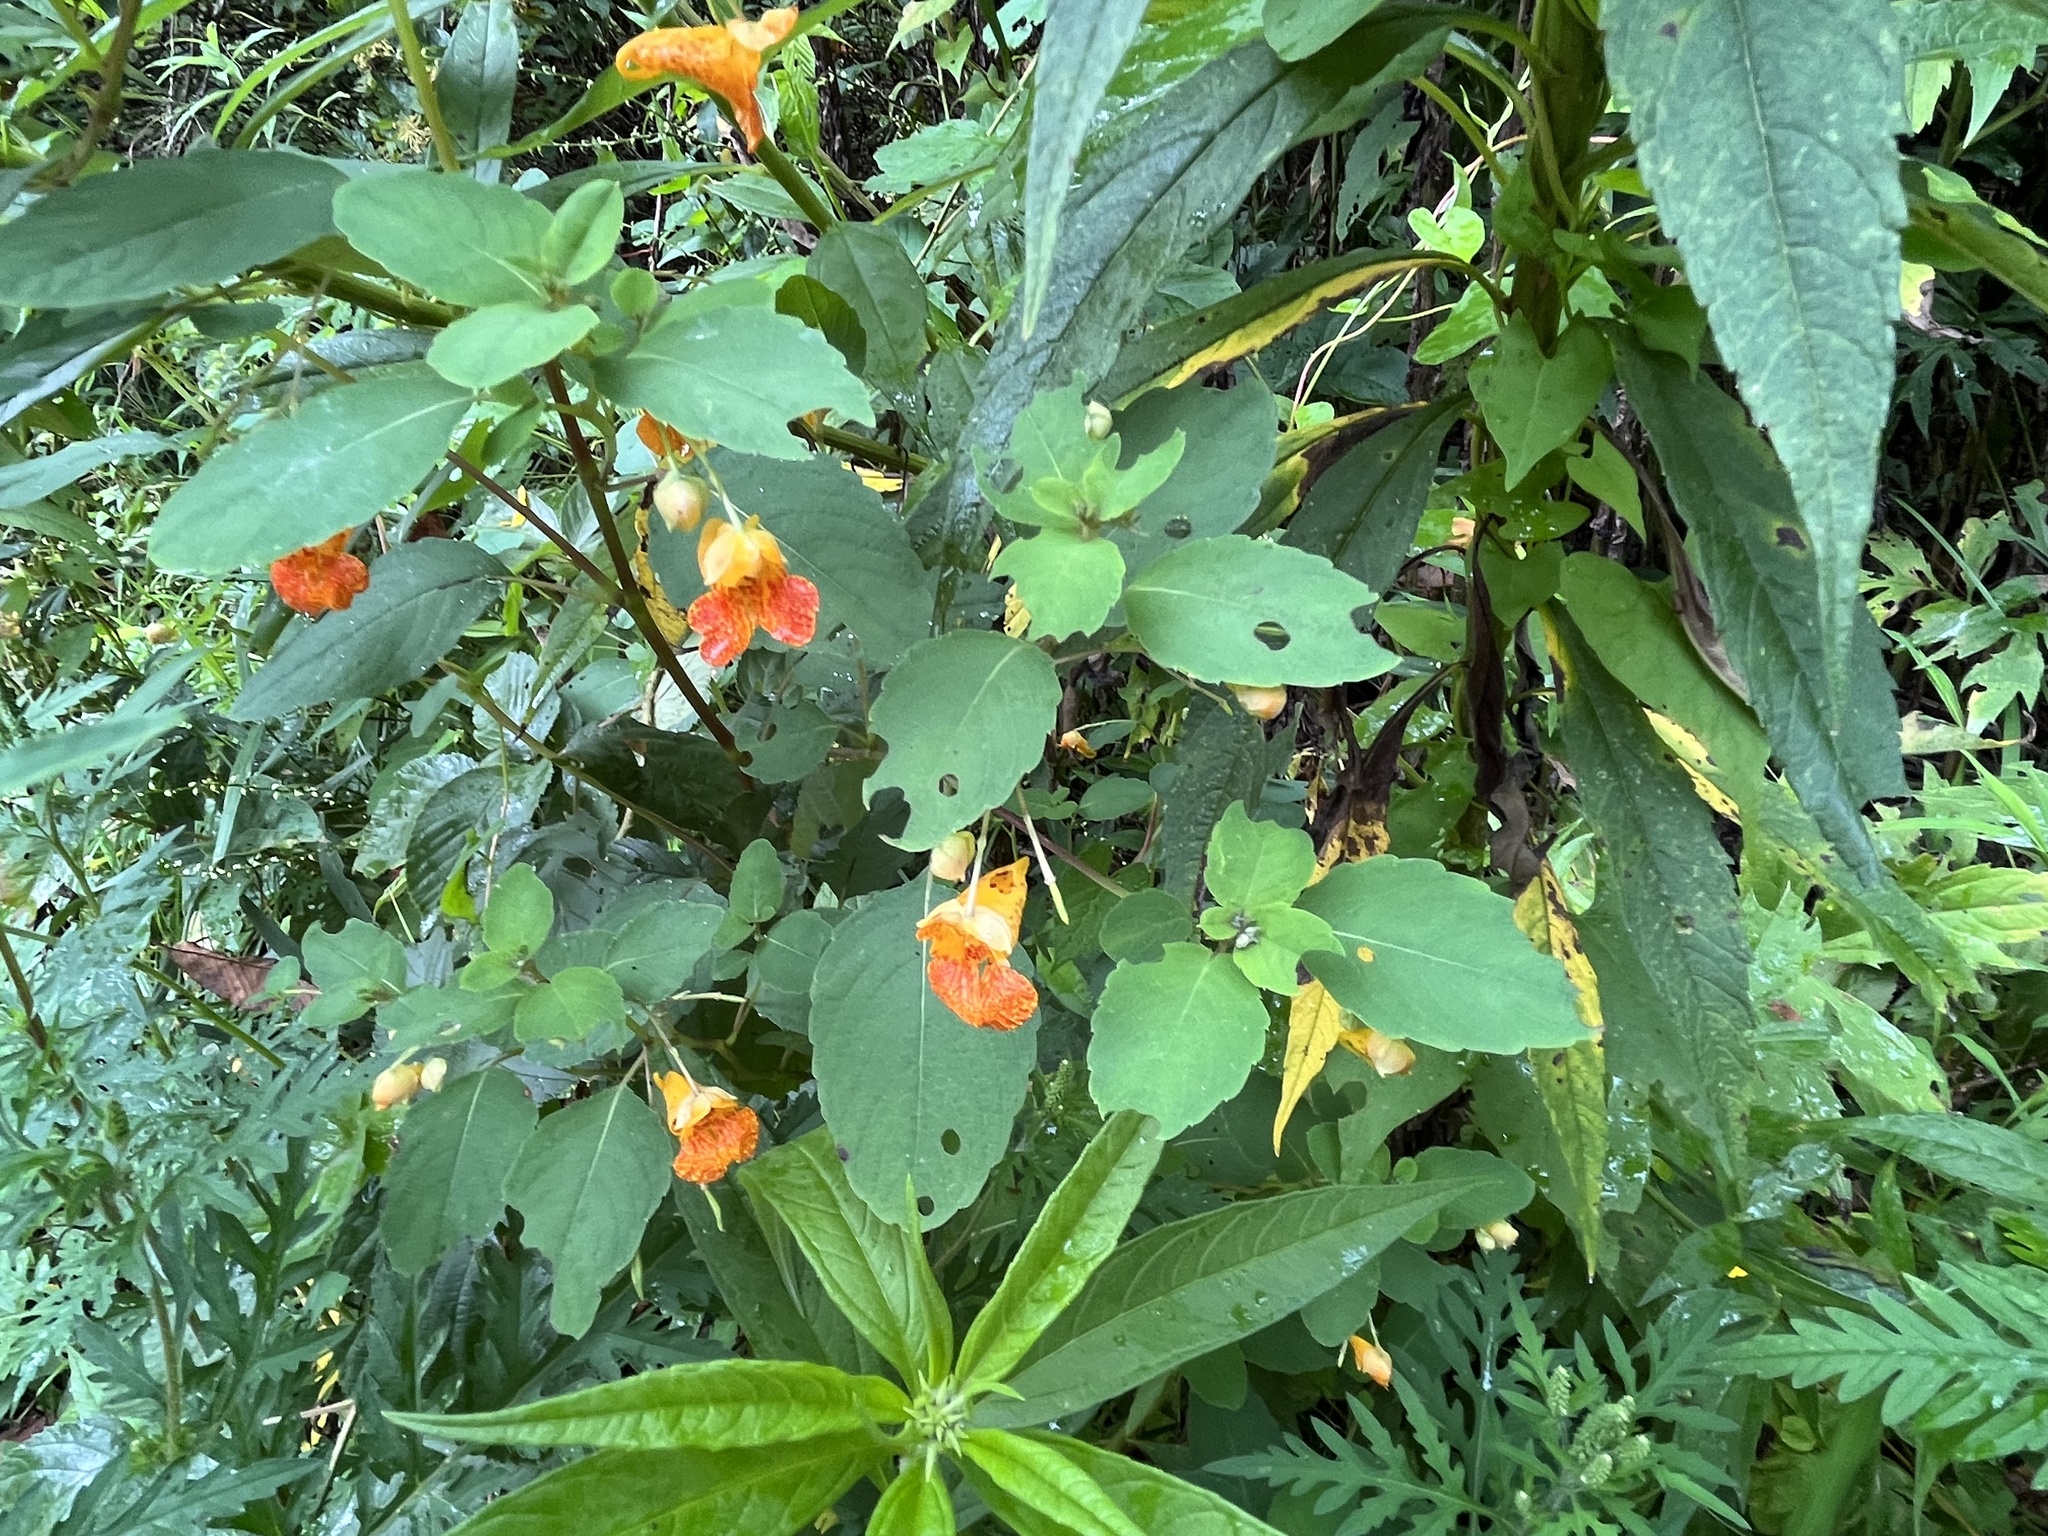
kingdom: Plantae
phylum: Tracheophyta
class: Magnoliopsida
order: Ericales
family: Balsaminaceae
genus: Impatiens
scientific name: Impatiens capensis
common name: Orange balsam
